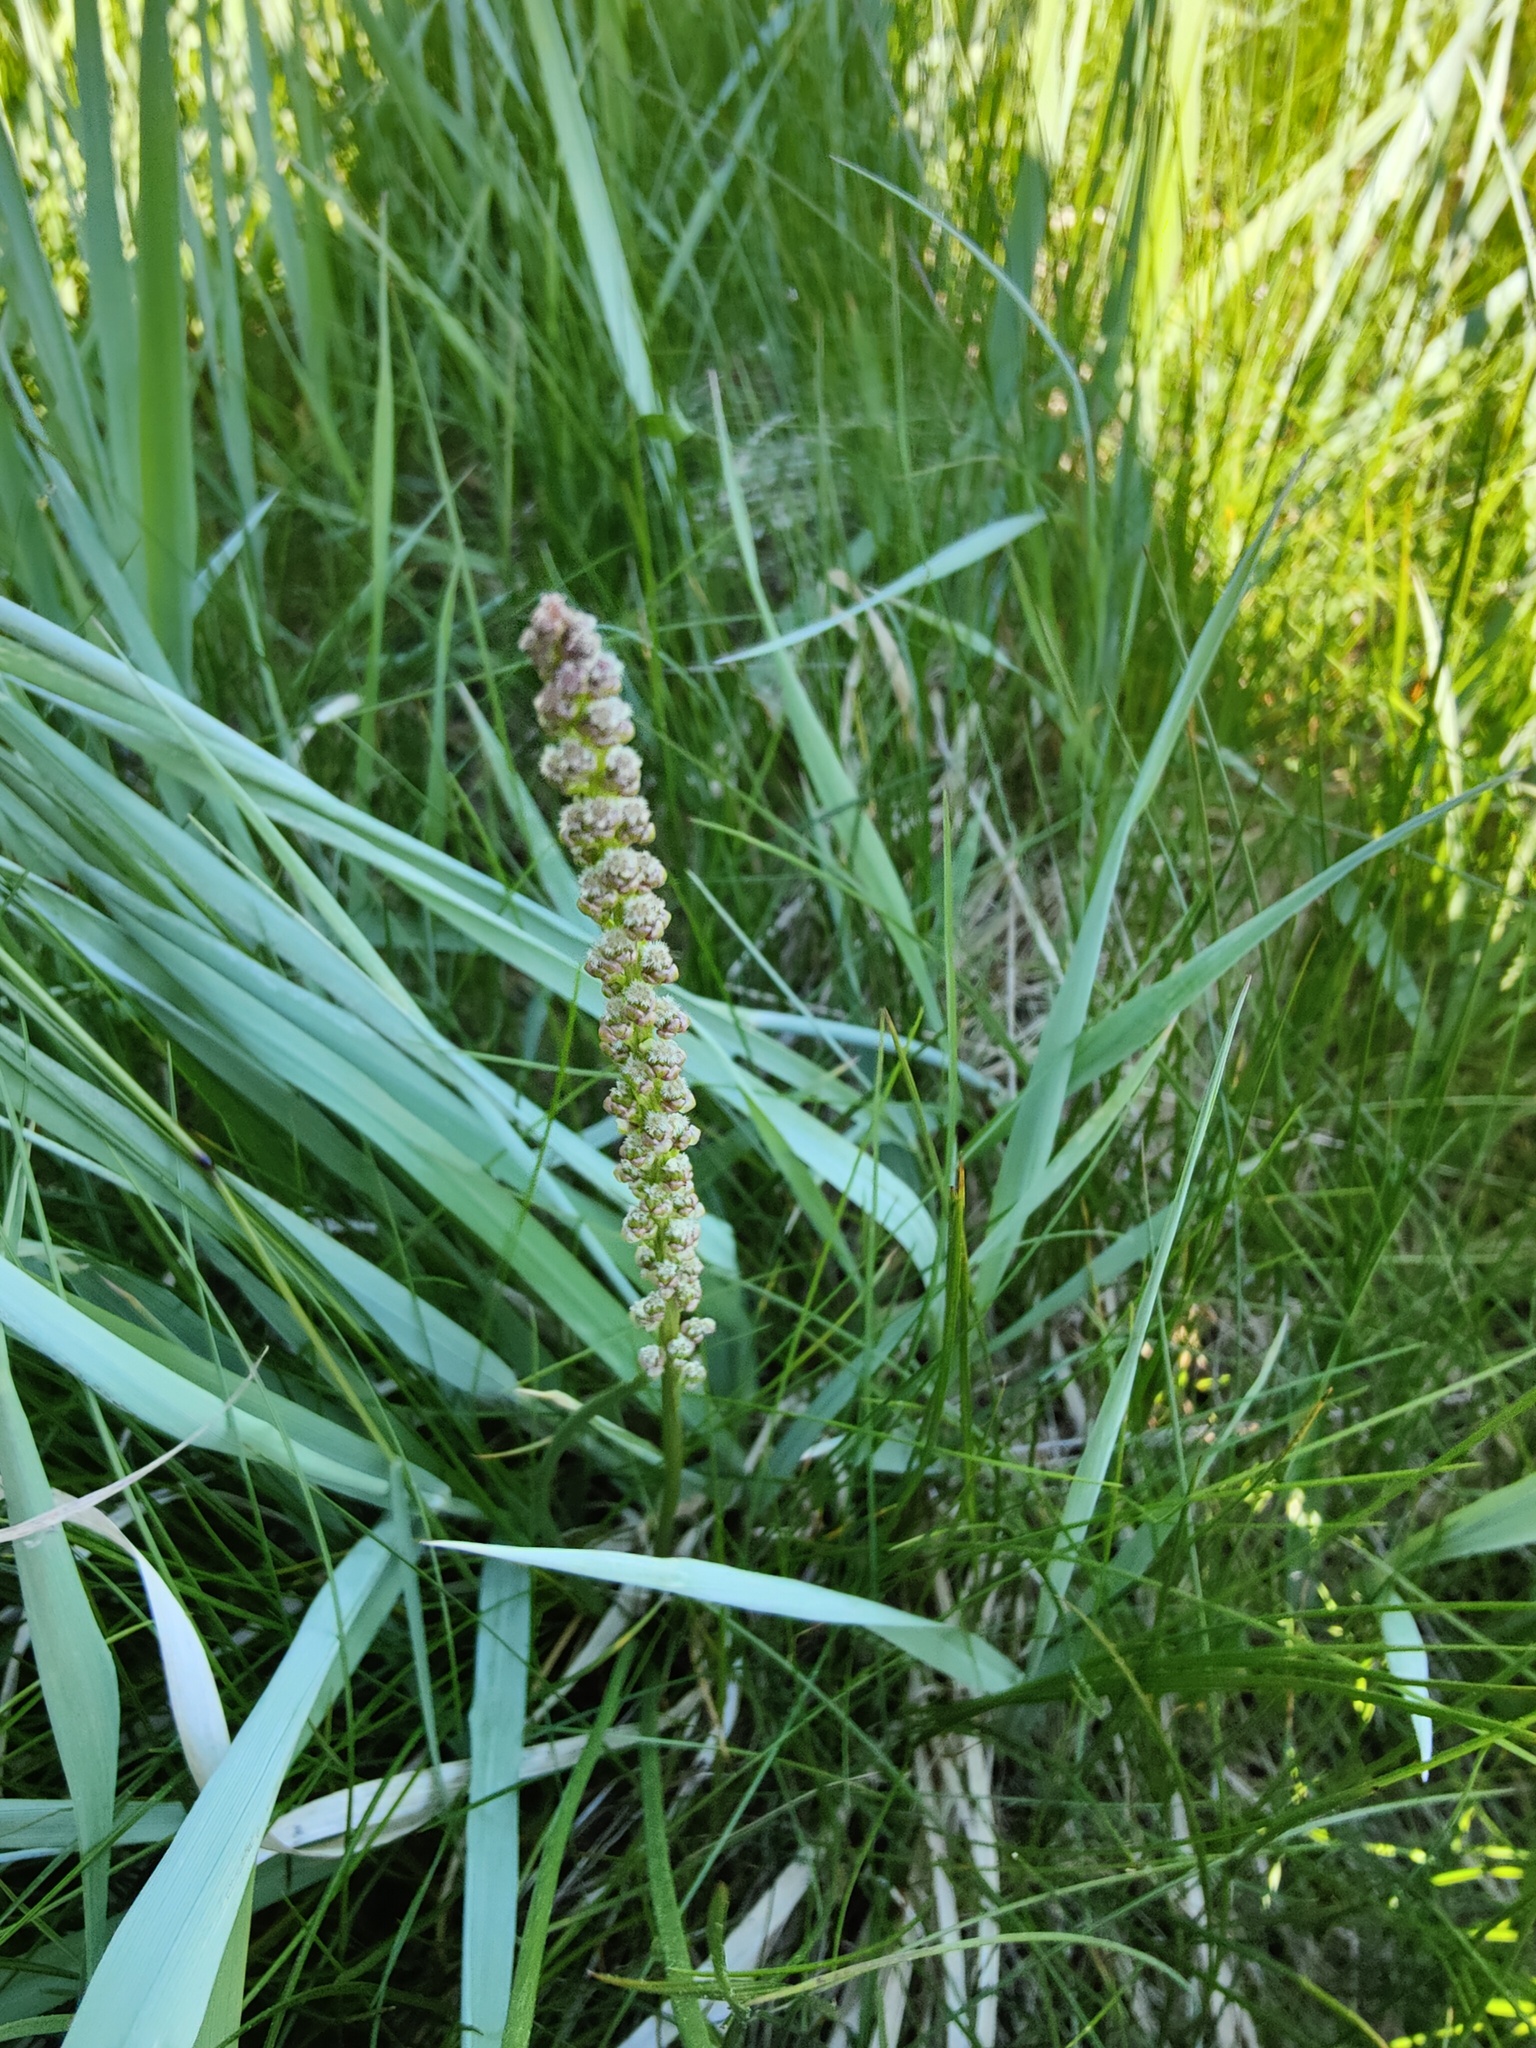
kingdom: Plantae
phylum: Tracheophyta
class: Liliopsida
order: Alismatales
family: Juncaginaceae
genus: Triglochin
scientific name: Triglochin maritima
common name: Sea arrowgrass
